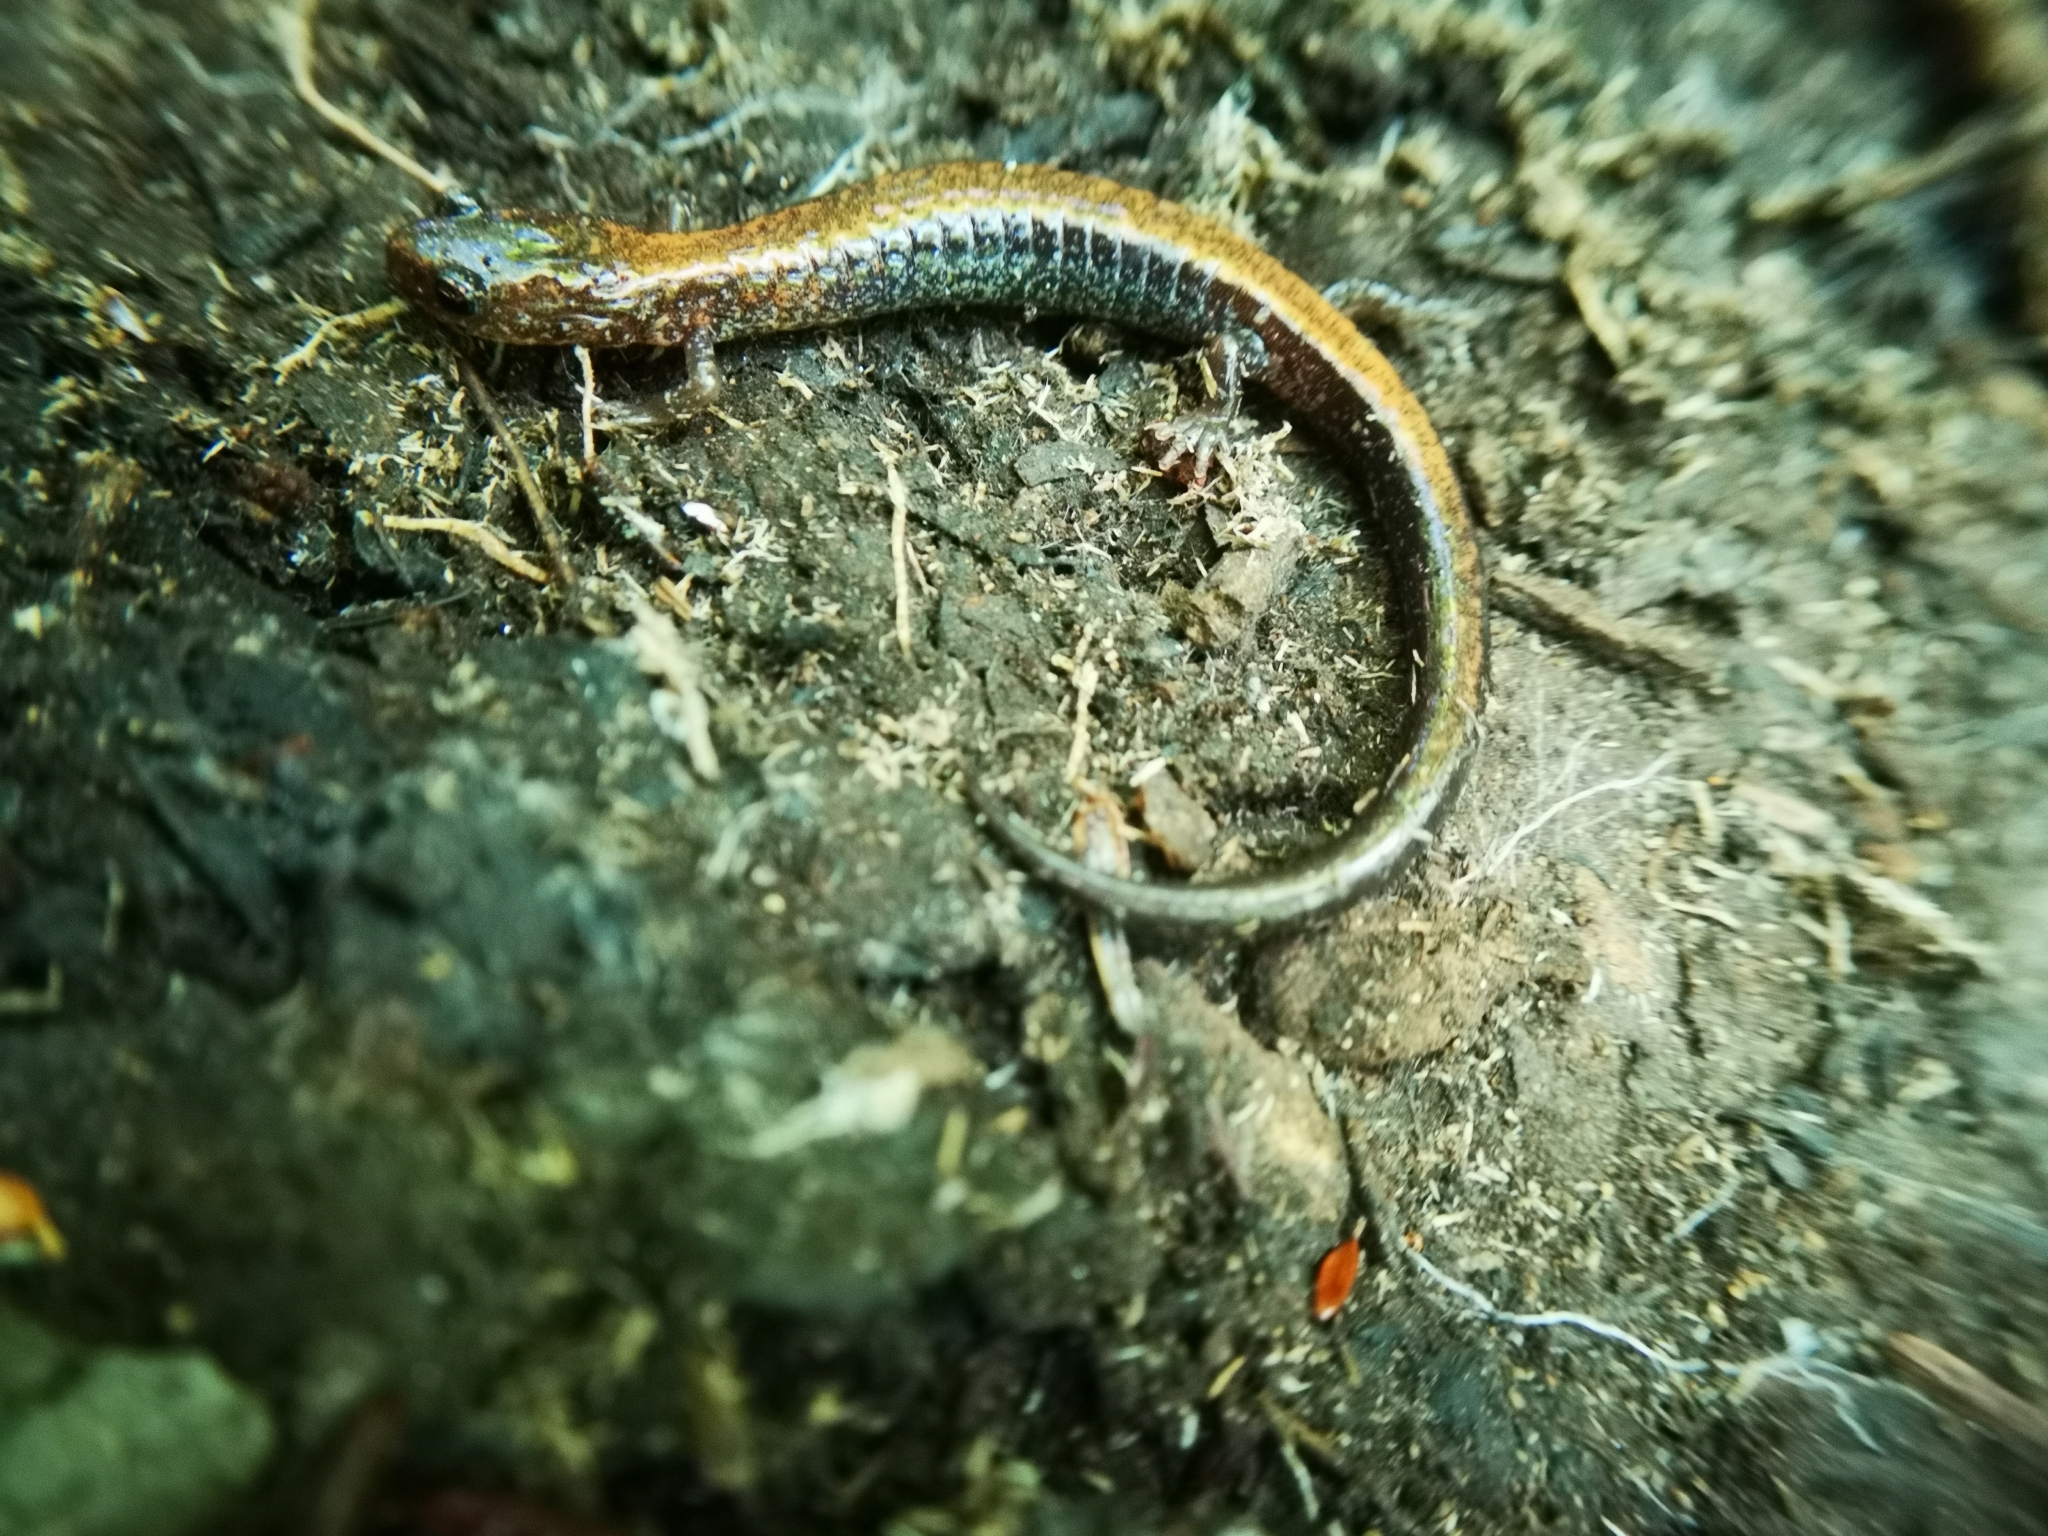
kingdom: Animalia
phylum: Chordata
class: Amphibia
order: Caudata
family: Plethodontidae
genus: Plethodon
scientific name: Plethodon cinereus
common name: Redback salamander
